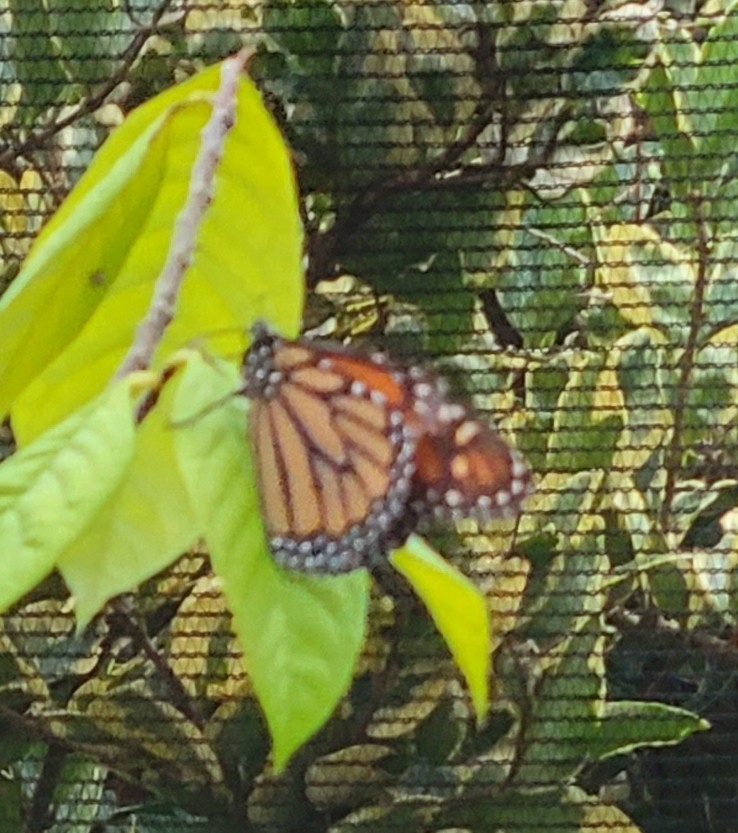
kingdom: Animalia
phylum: Arthropoda
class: Insecta
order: Lepidoptera
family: Nymphalidae
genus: Danaus
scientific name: Danaus plexippus
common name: Monarch
